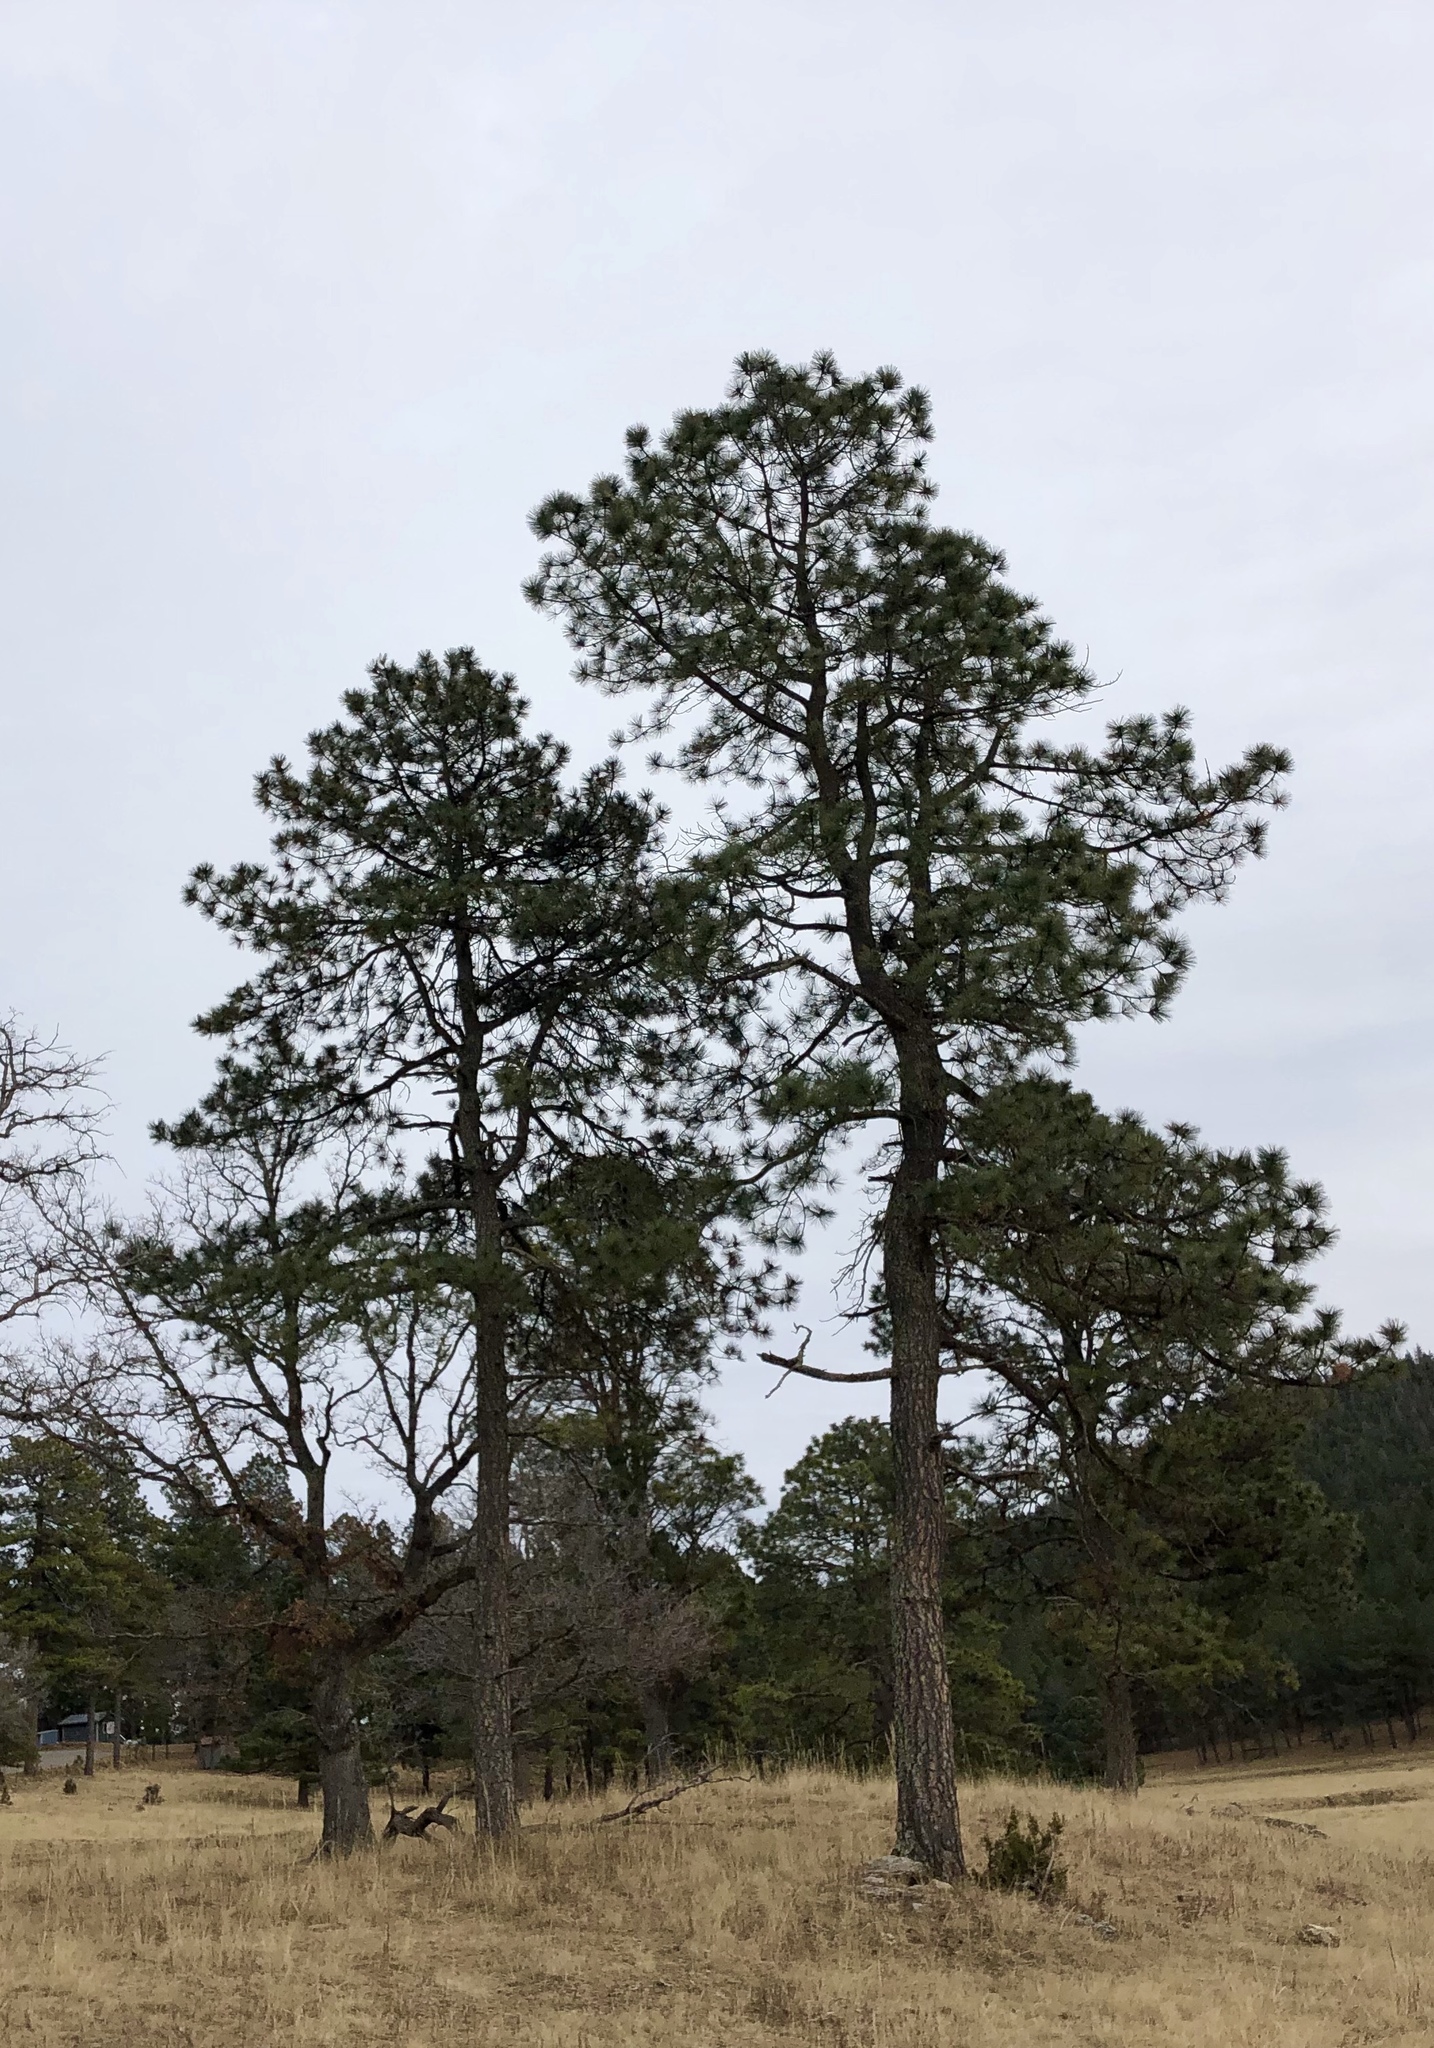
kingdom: Plantae
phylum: Tracheophyta
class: Pinopsida
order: Pinales
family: Pinaceae
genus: Pinus
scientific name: Pinus ponderosa
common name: Western yellow-pine
